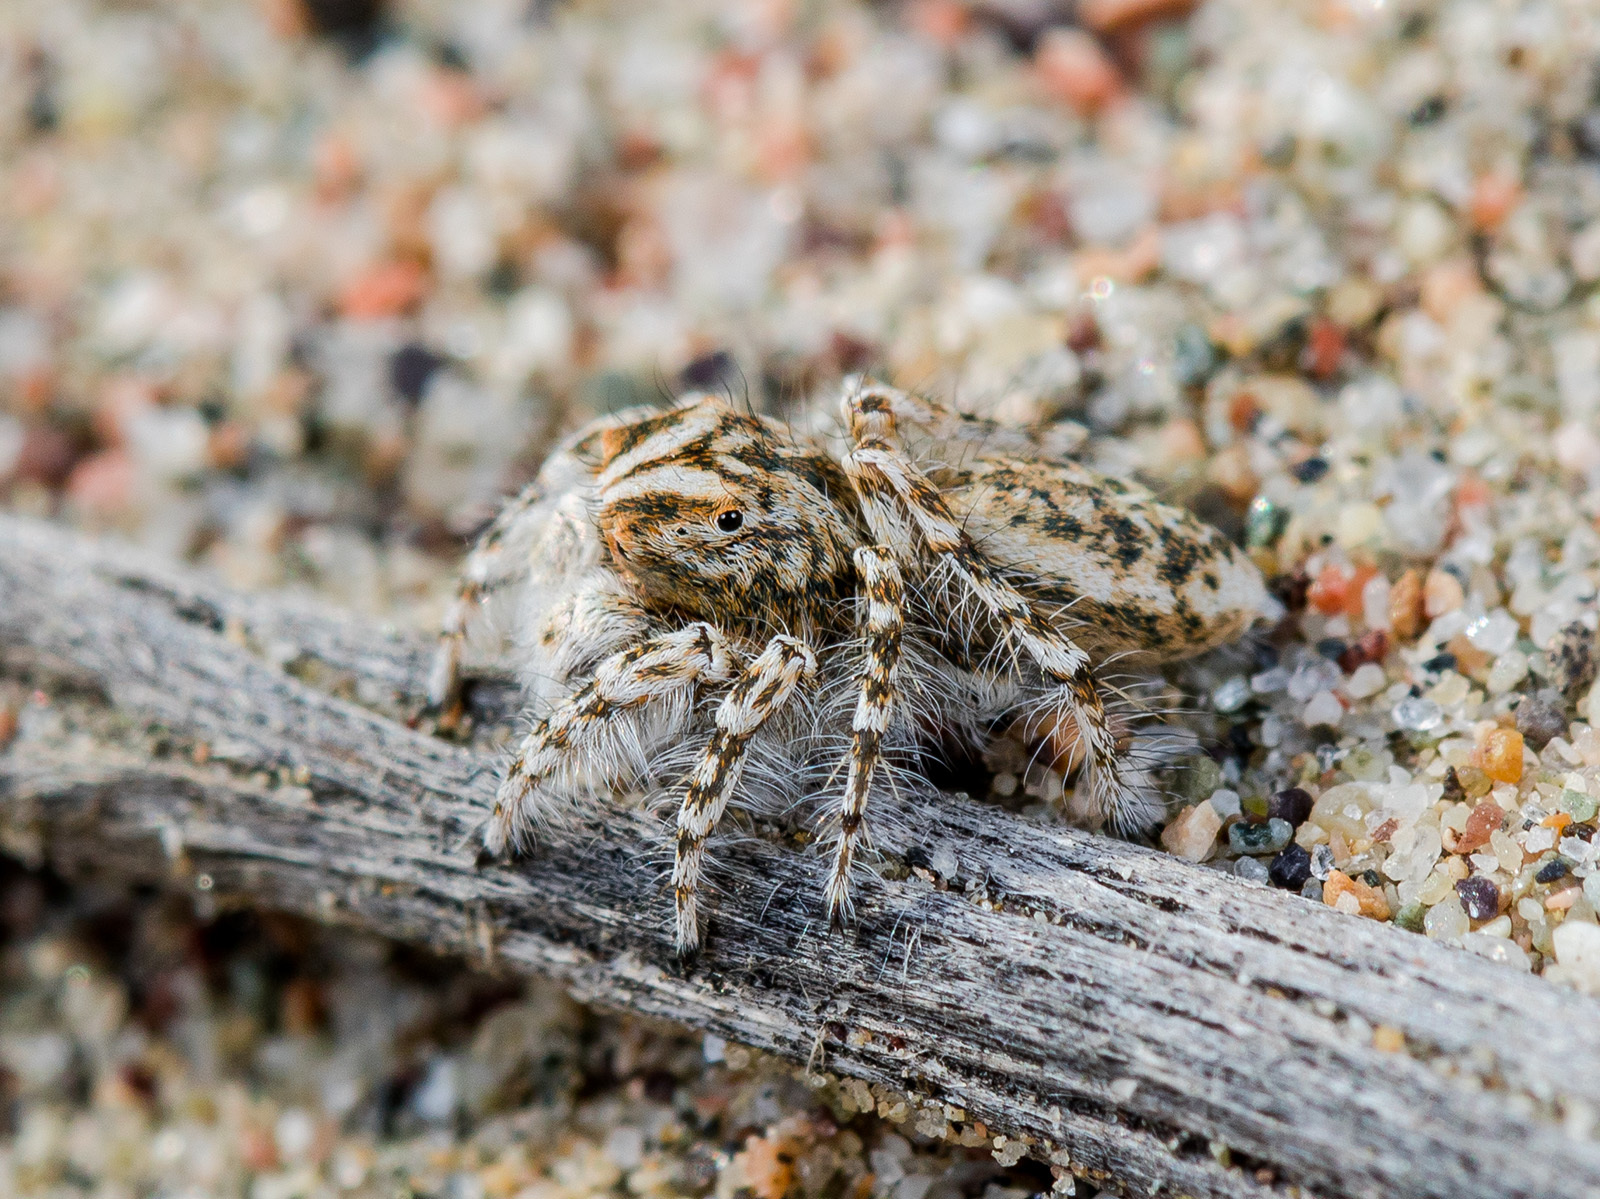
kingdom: Animalia
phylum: Arthropoda
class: Arachnida
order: Araneae
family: Salticidae
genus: Yllenus
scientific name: Yllenus uiguricus
